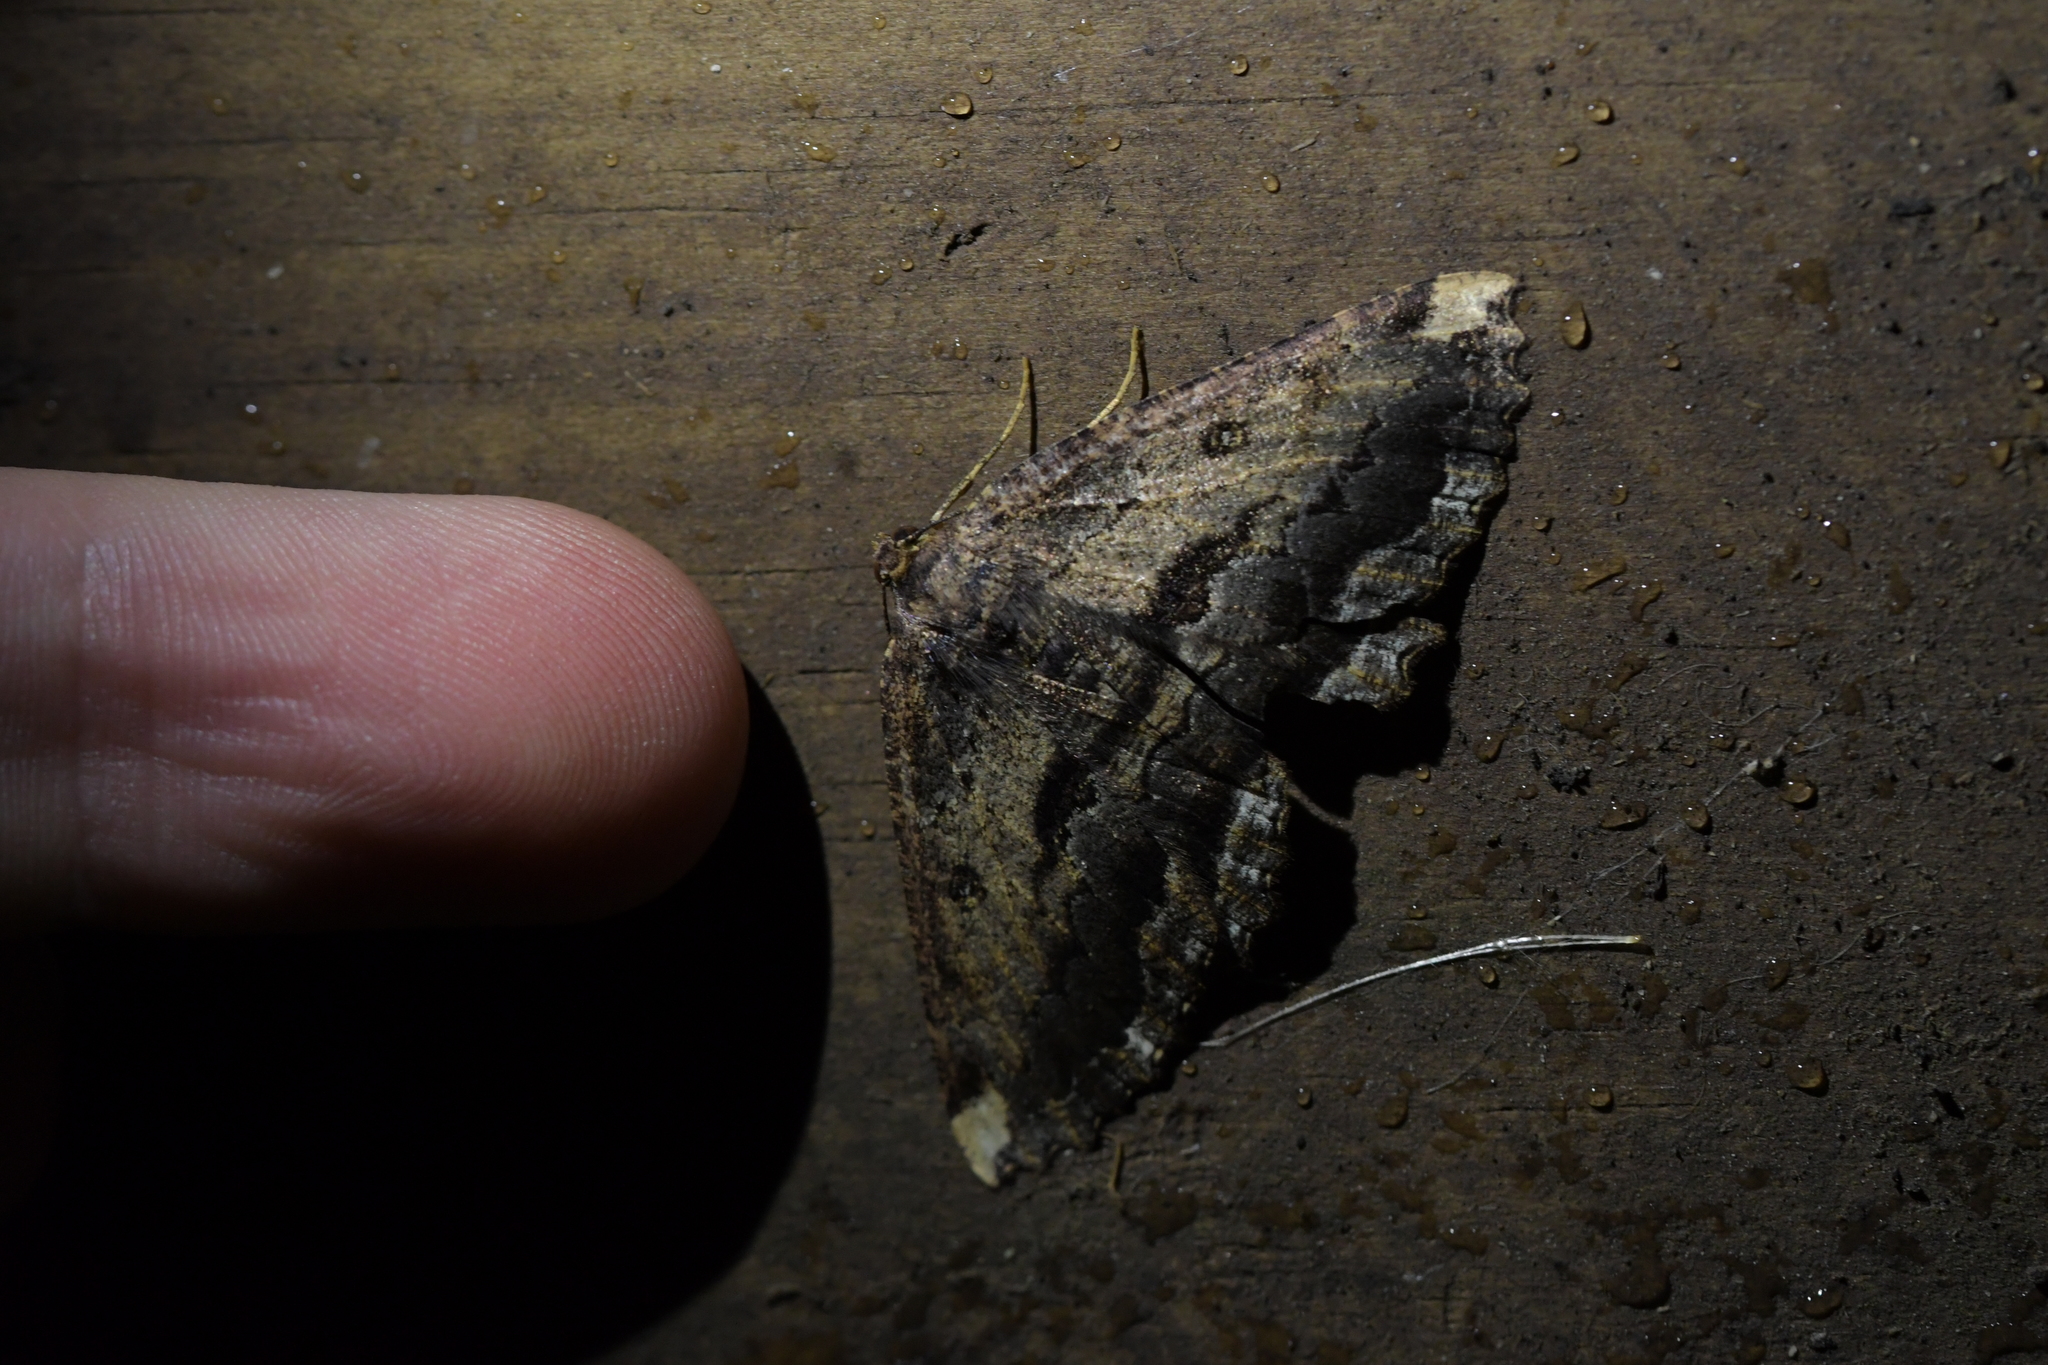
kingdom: Animalia
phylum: Arthropoda
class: Insecta
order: Lepidoptera
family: Geometridae
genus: Gellonia
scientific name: Gellonia dejectaria
